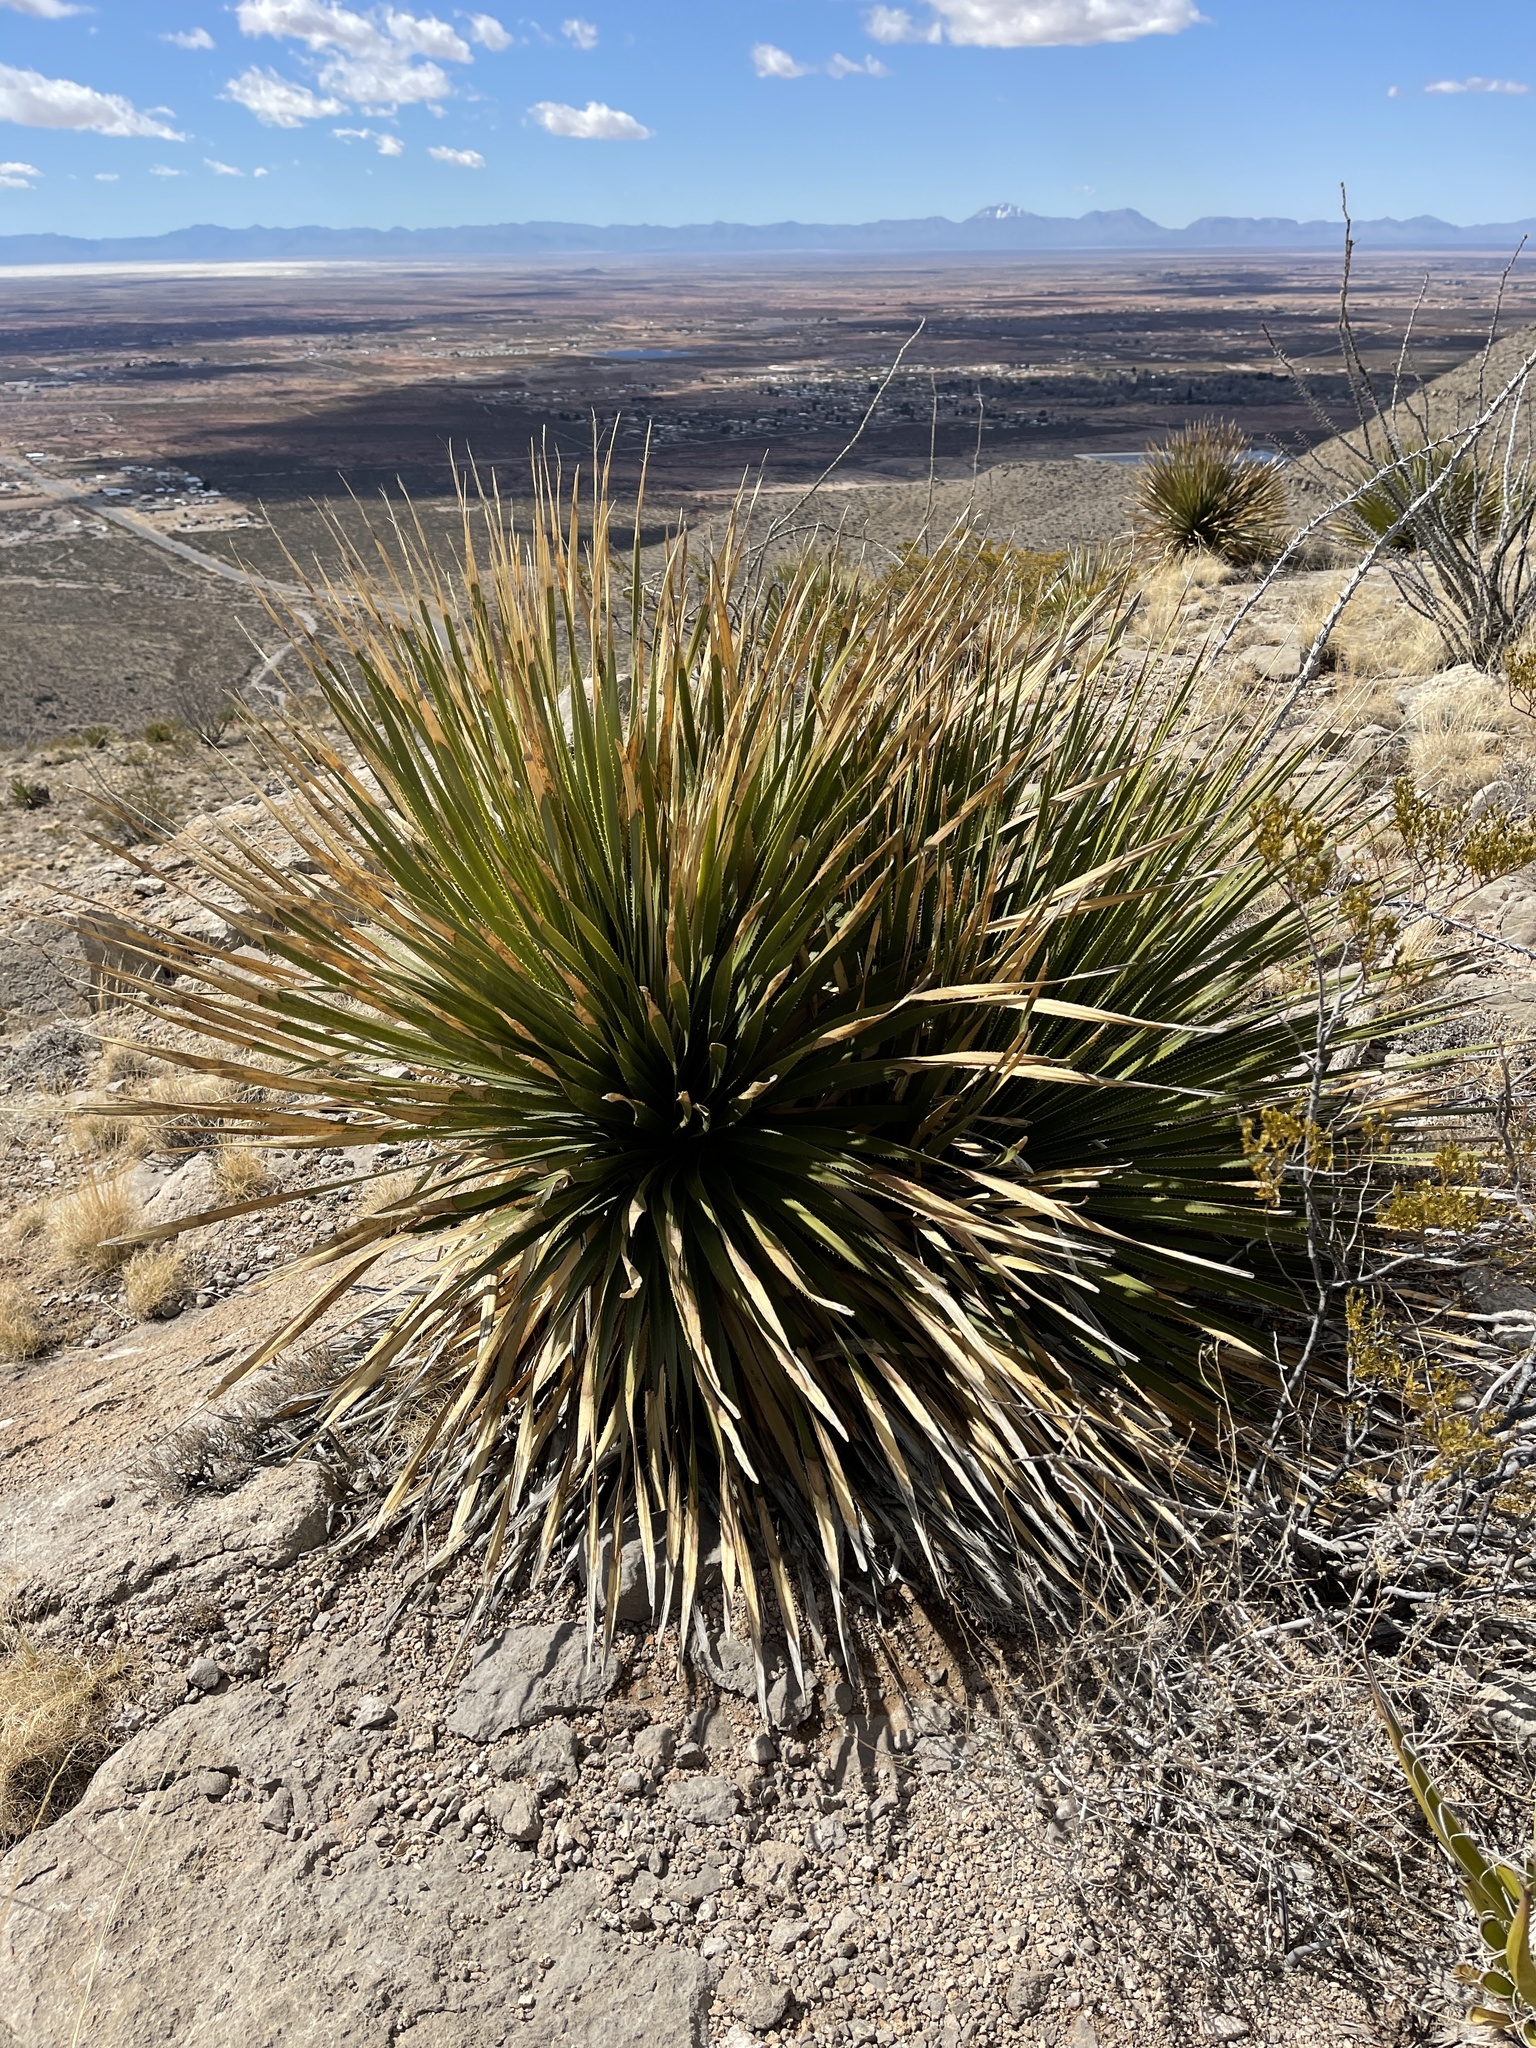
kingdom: Plantae
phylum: Tracheophyta
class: Liliopsida
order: Asparagales
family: Asparagaceae
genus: Dasylirion
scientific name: Dasylirion wheeleri
